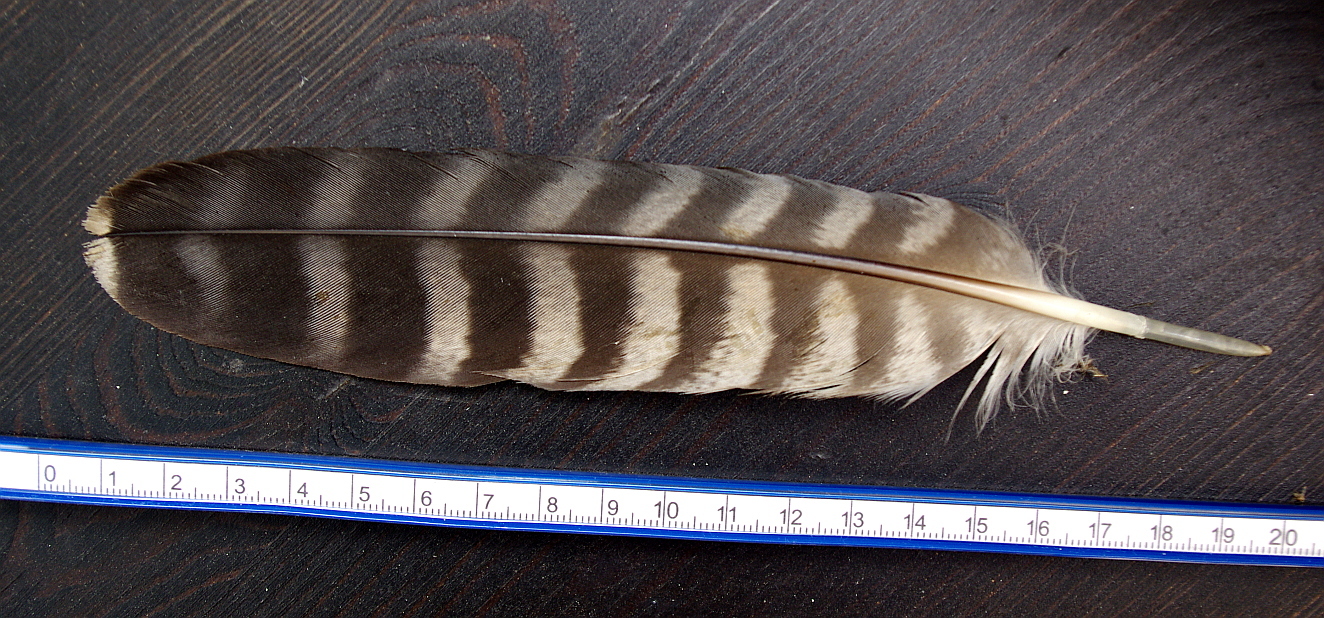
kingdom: Animalia
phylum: Chordata
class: Aves
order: Falconiformes
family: Falconidae
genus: Falco
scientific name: Falco peregrinus
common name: Peregrine falcon
